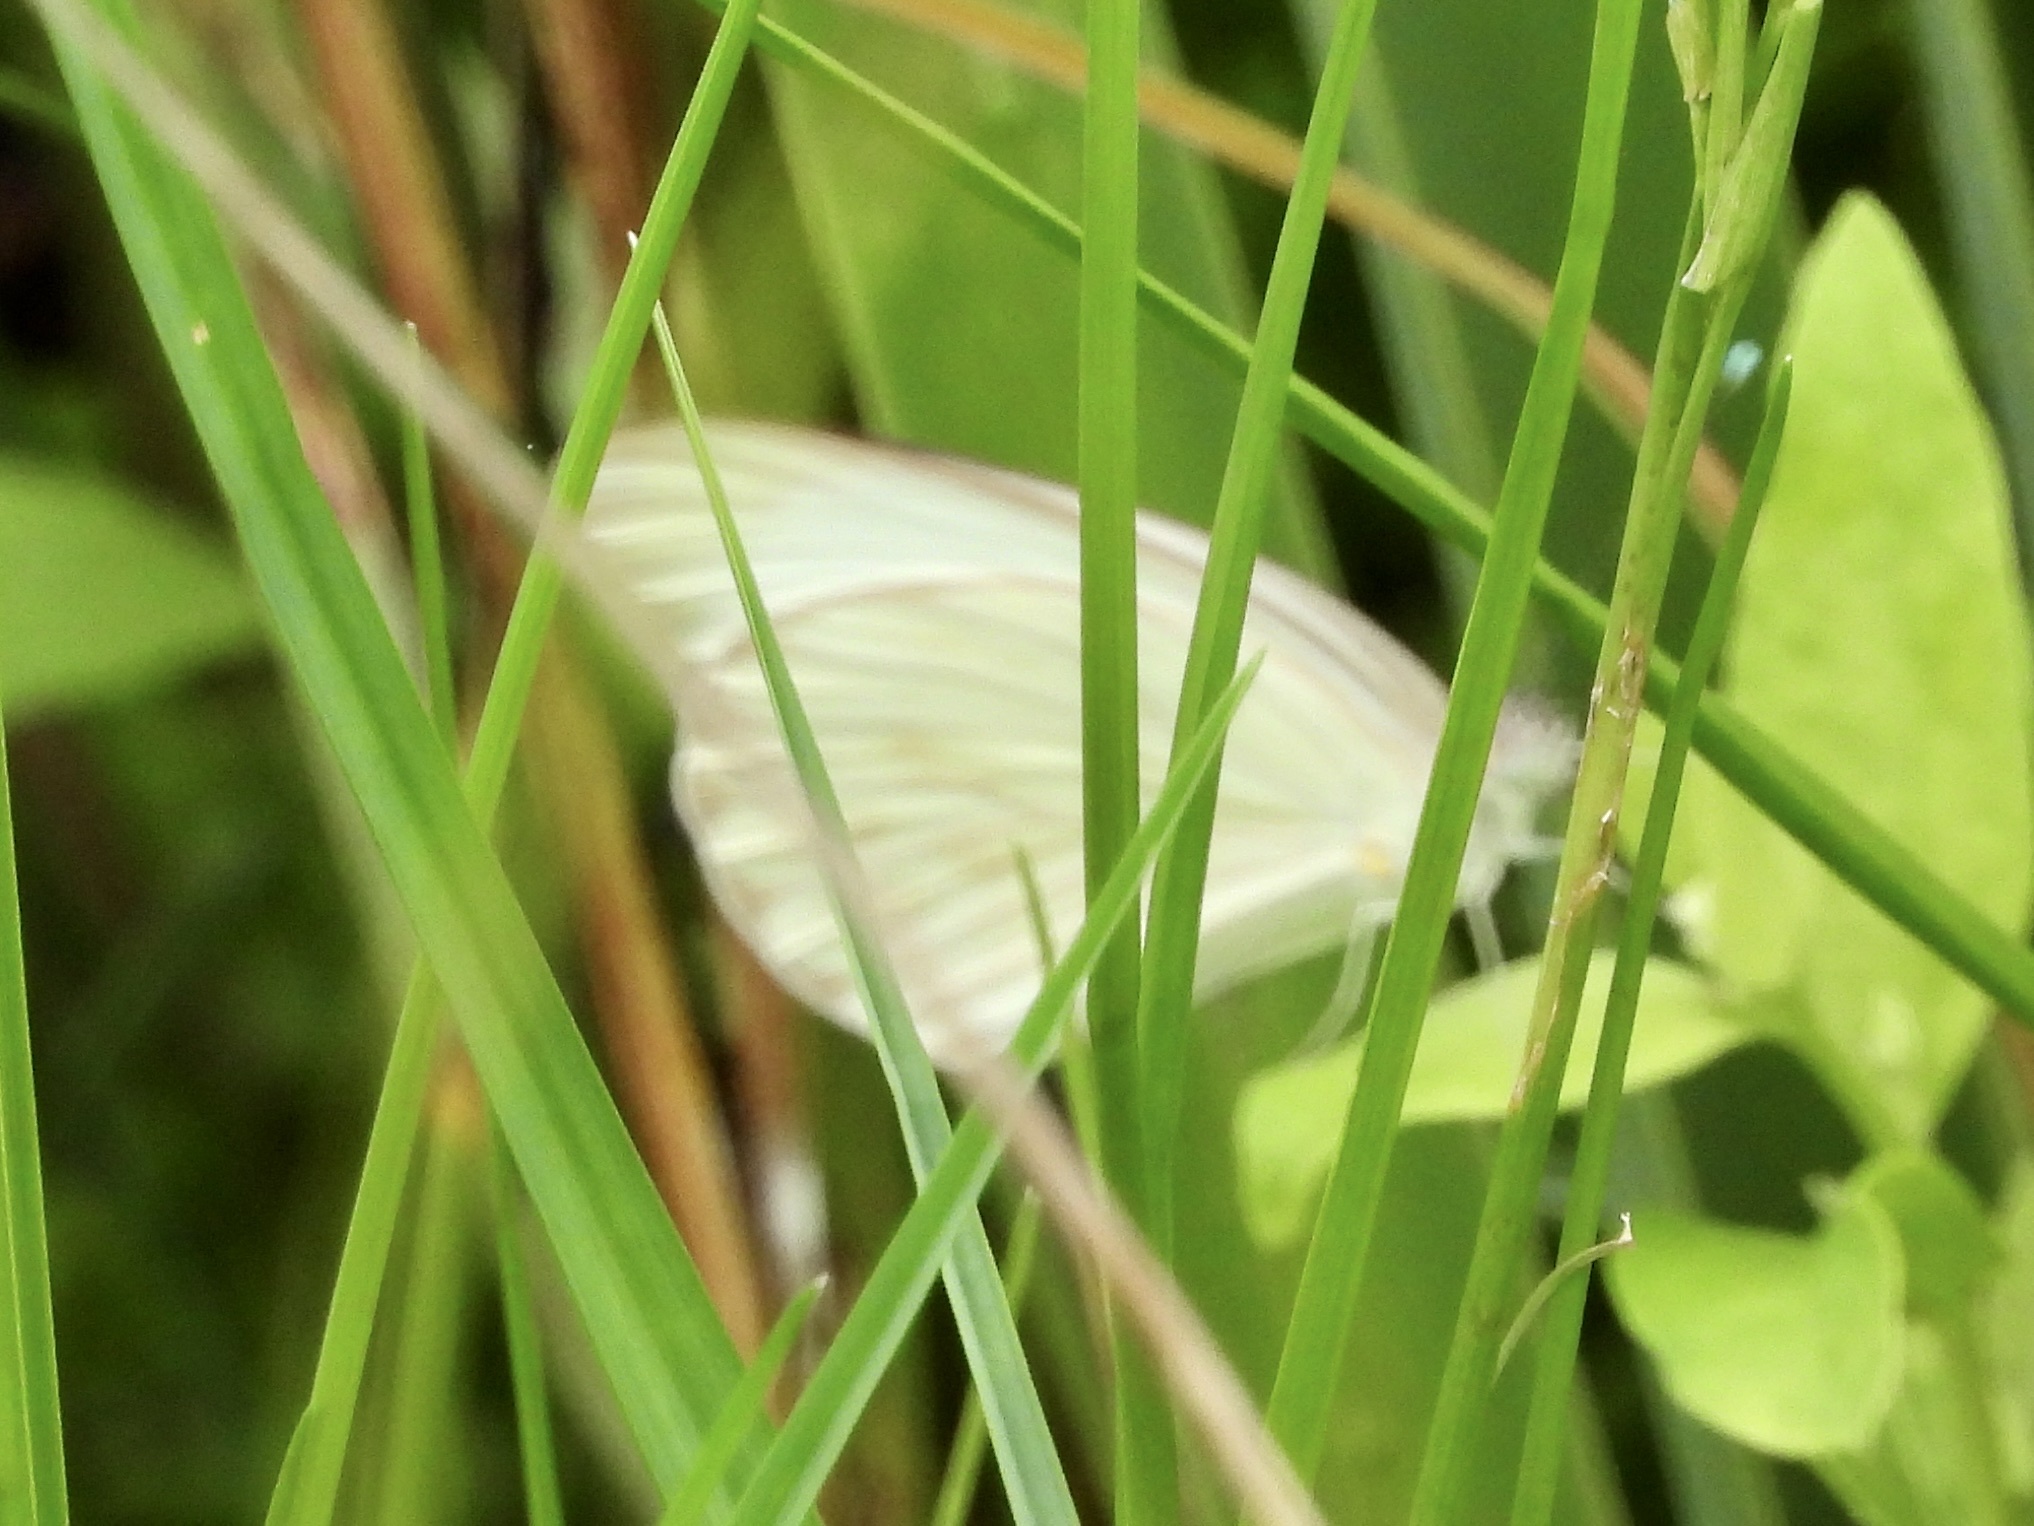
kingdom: Animalia
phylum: Arthropoda
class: Insecta
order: Lepidoptera
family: Pieridae
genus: Ascia
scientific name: Ascia monuste
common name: Great southern white
